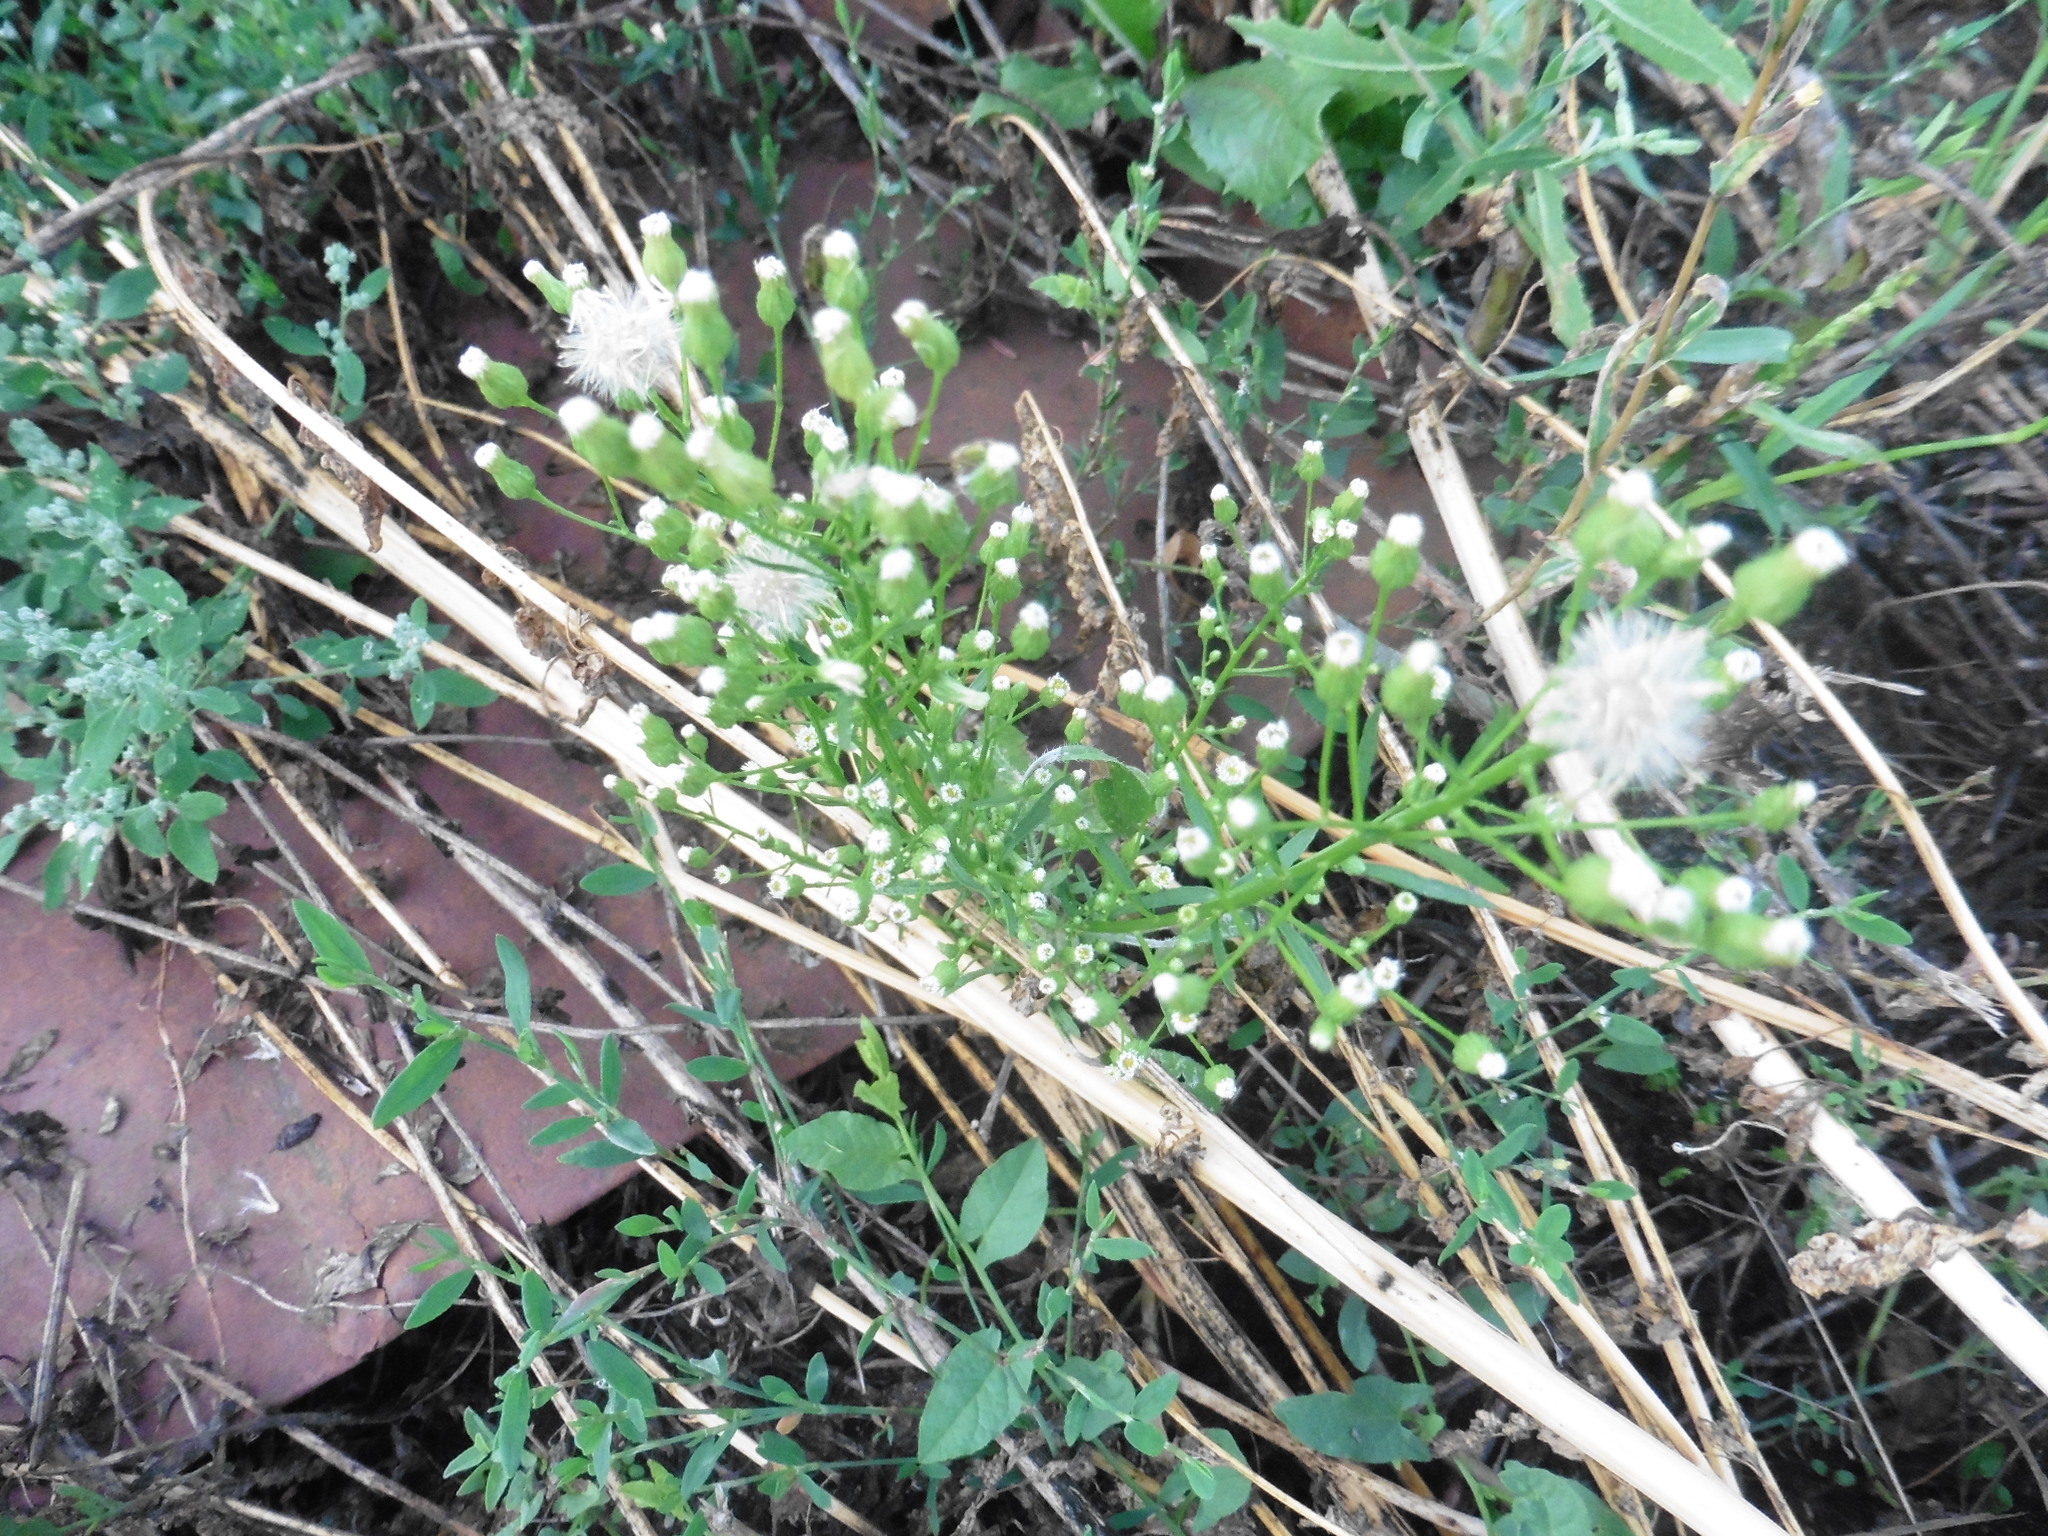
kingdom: Plantae
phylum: Tracheophyta
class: Magnoliopsida
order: Asterales
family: Asteraceae
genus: Erigeron
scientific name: Erigeron canadensis
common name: Canadian fleabane
